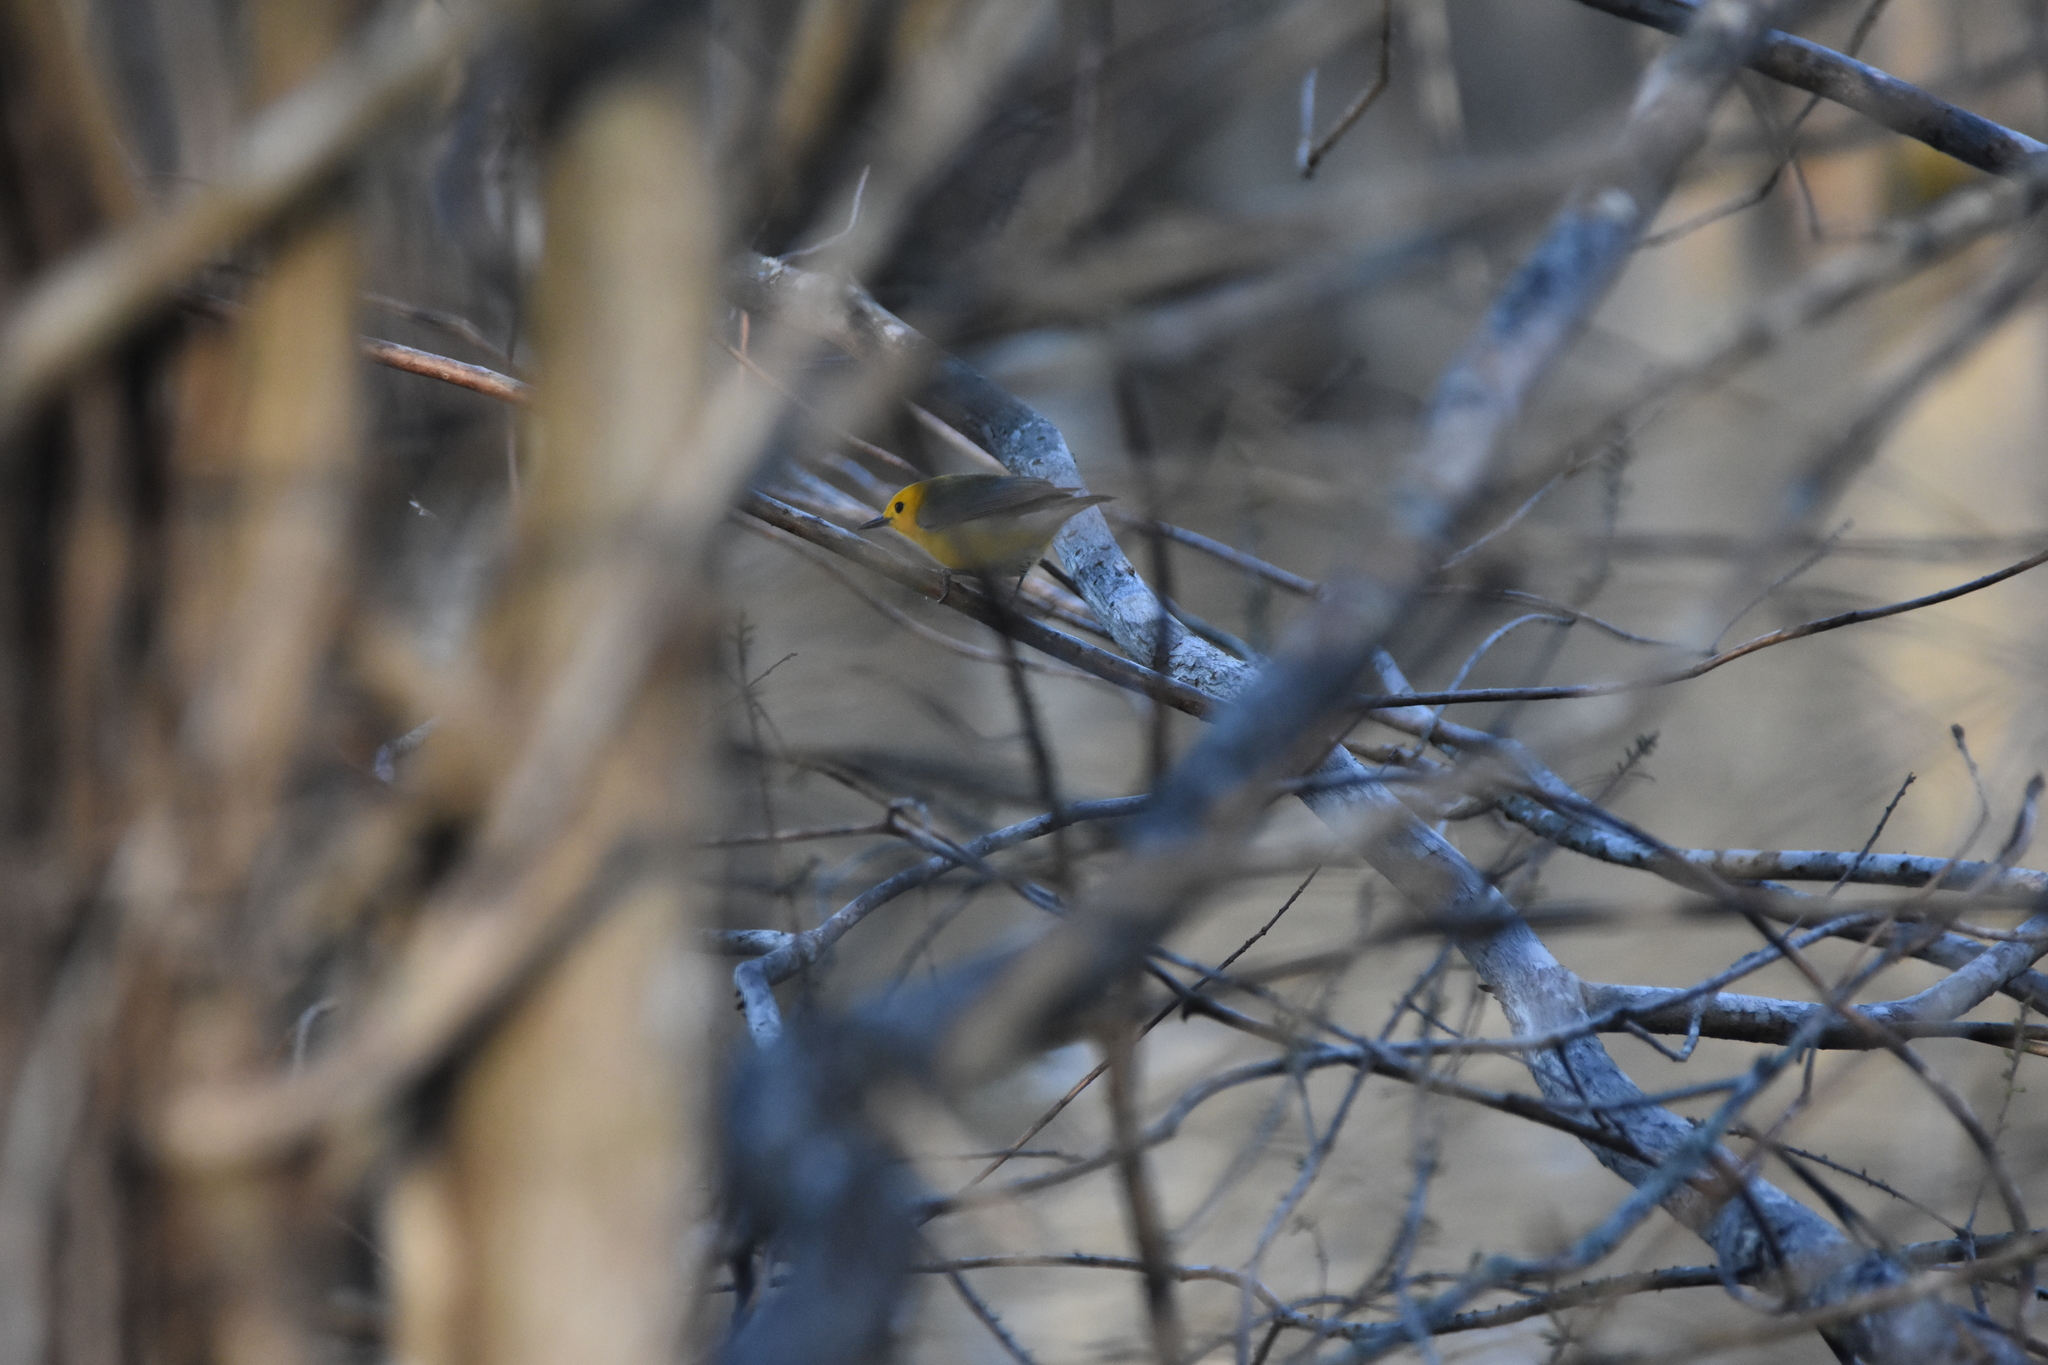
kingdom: Animalia
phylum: Chordata
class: Aves
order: Passeriformes
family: Parulidae
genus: Protonotaria
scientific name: Protonotaria citrea
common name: Prothonotary warbler
